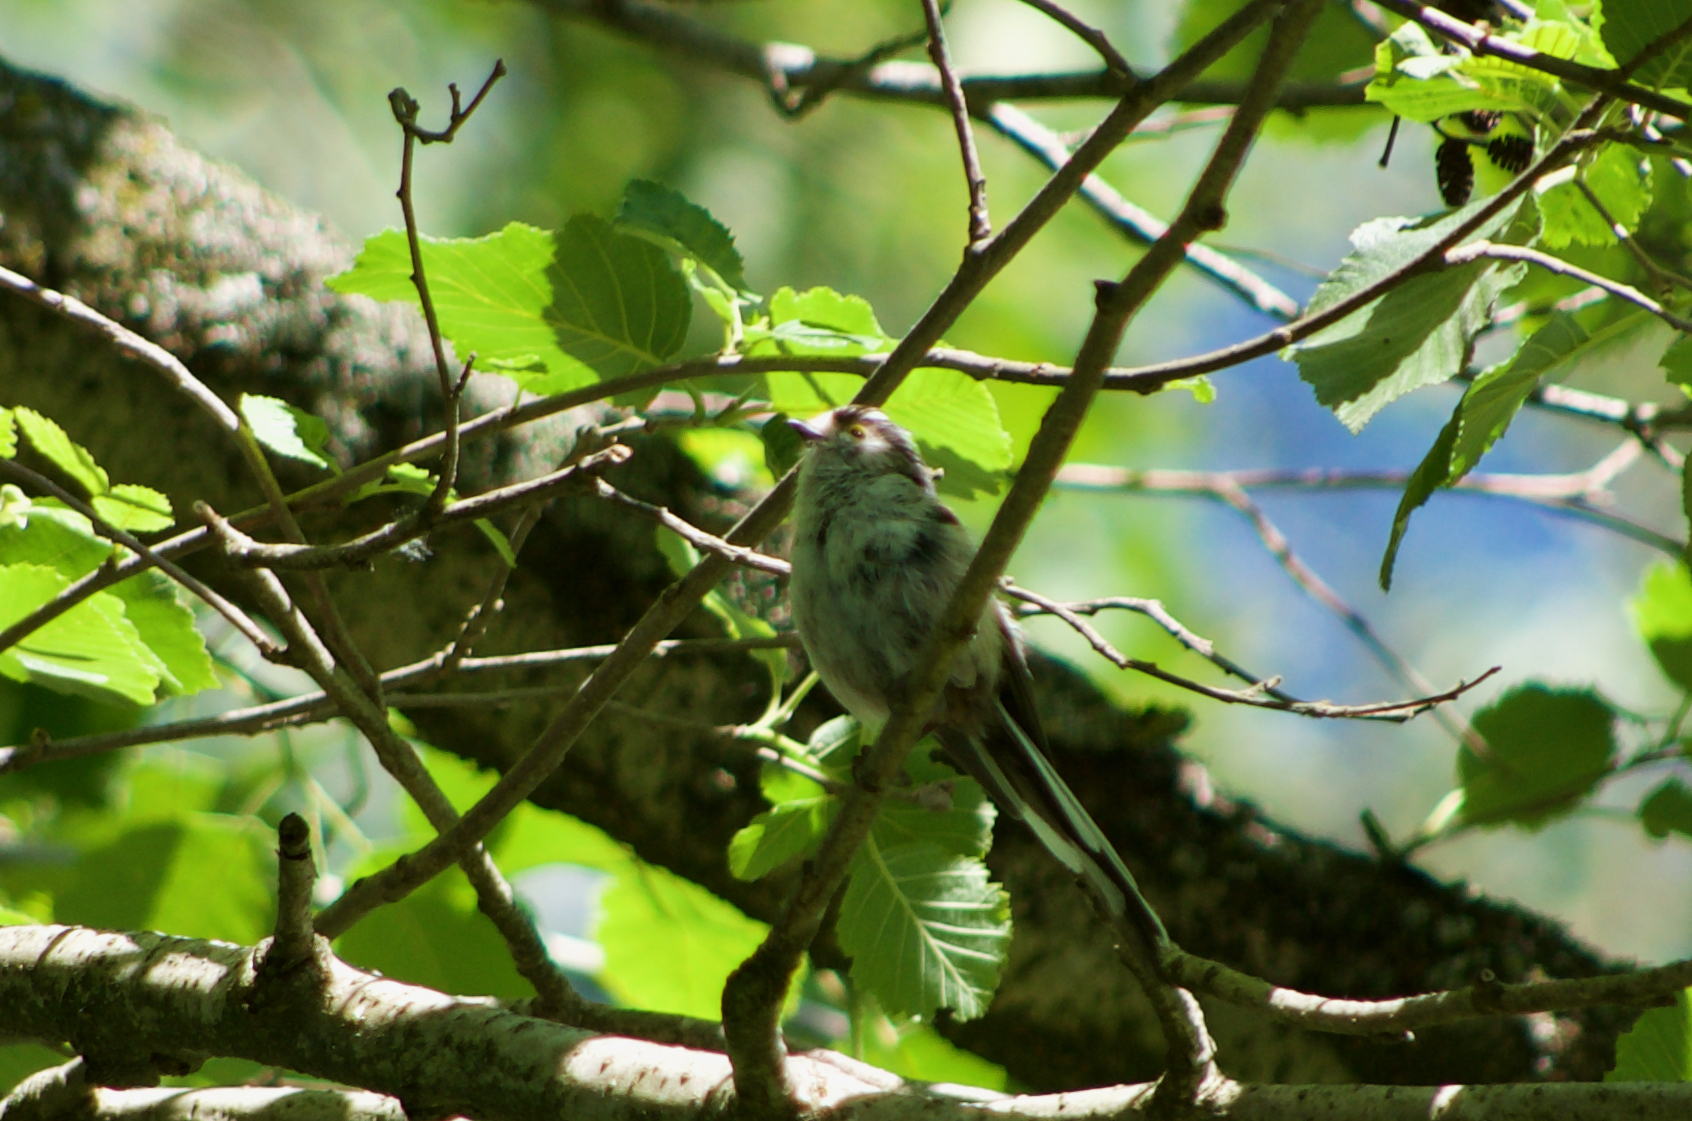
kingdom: Animalia
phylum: Chordata
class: Aves
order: Passeriformes
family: Aegithalidae
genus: Aegithalos
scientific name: Aegithalos caudatus
